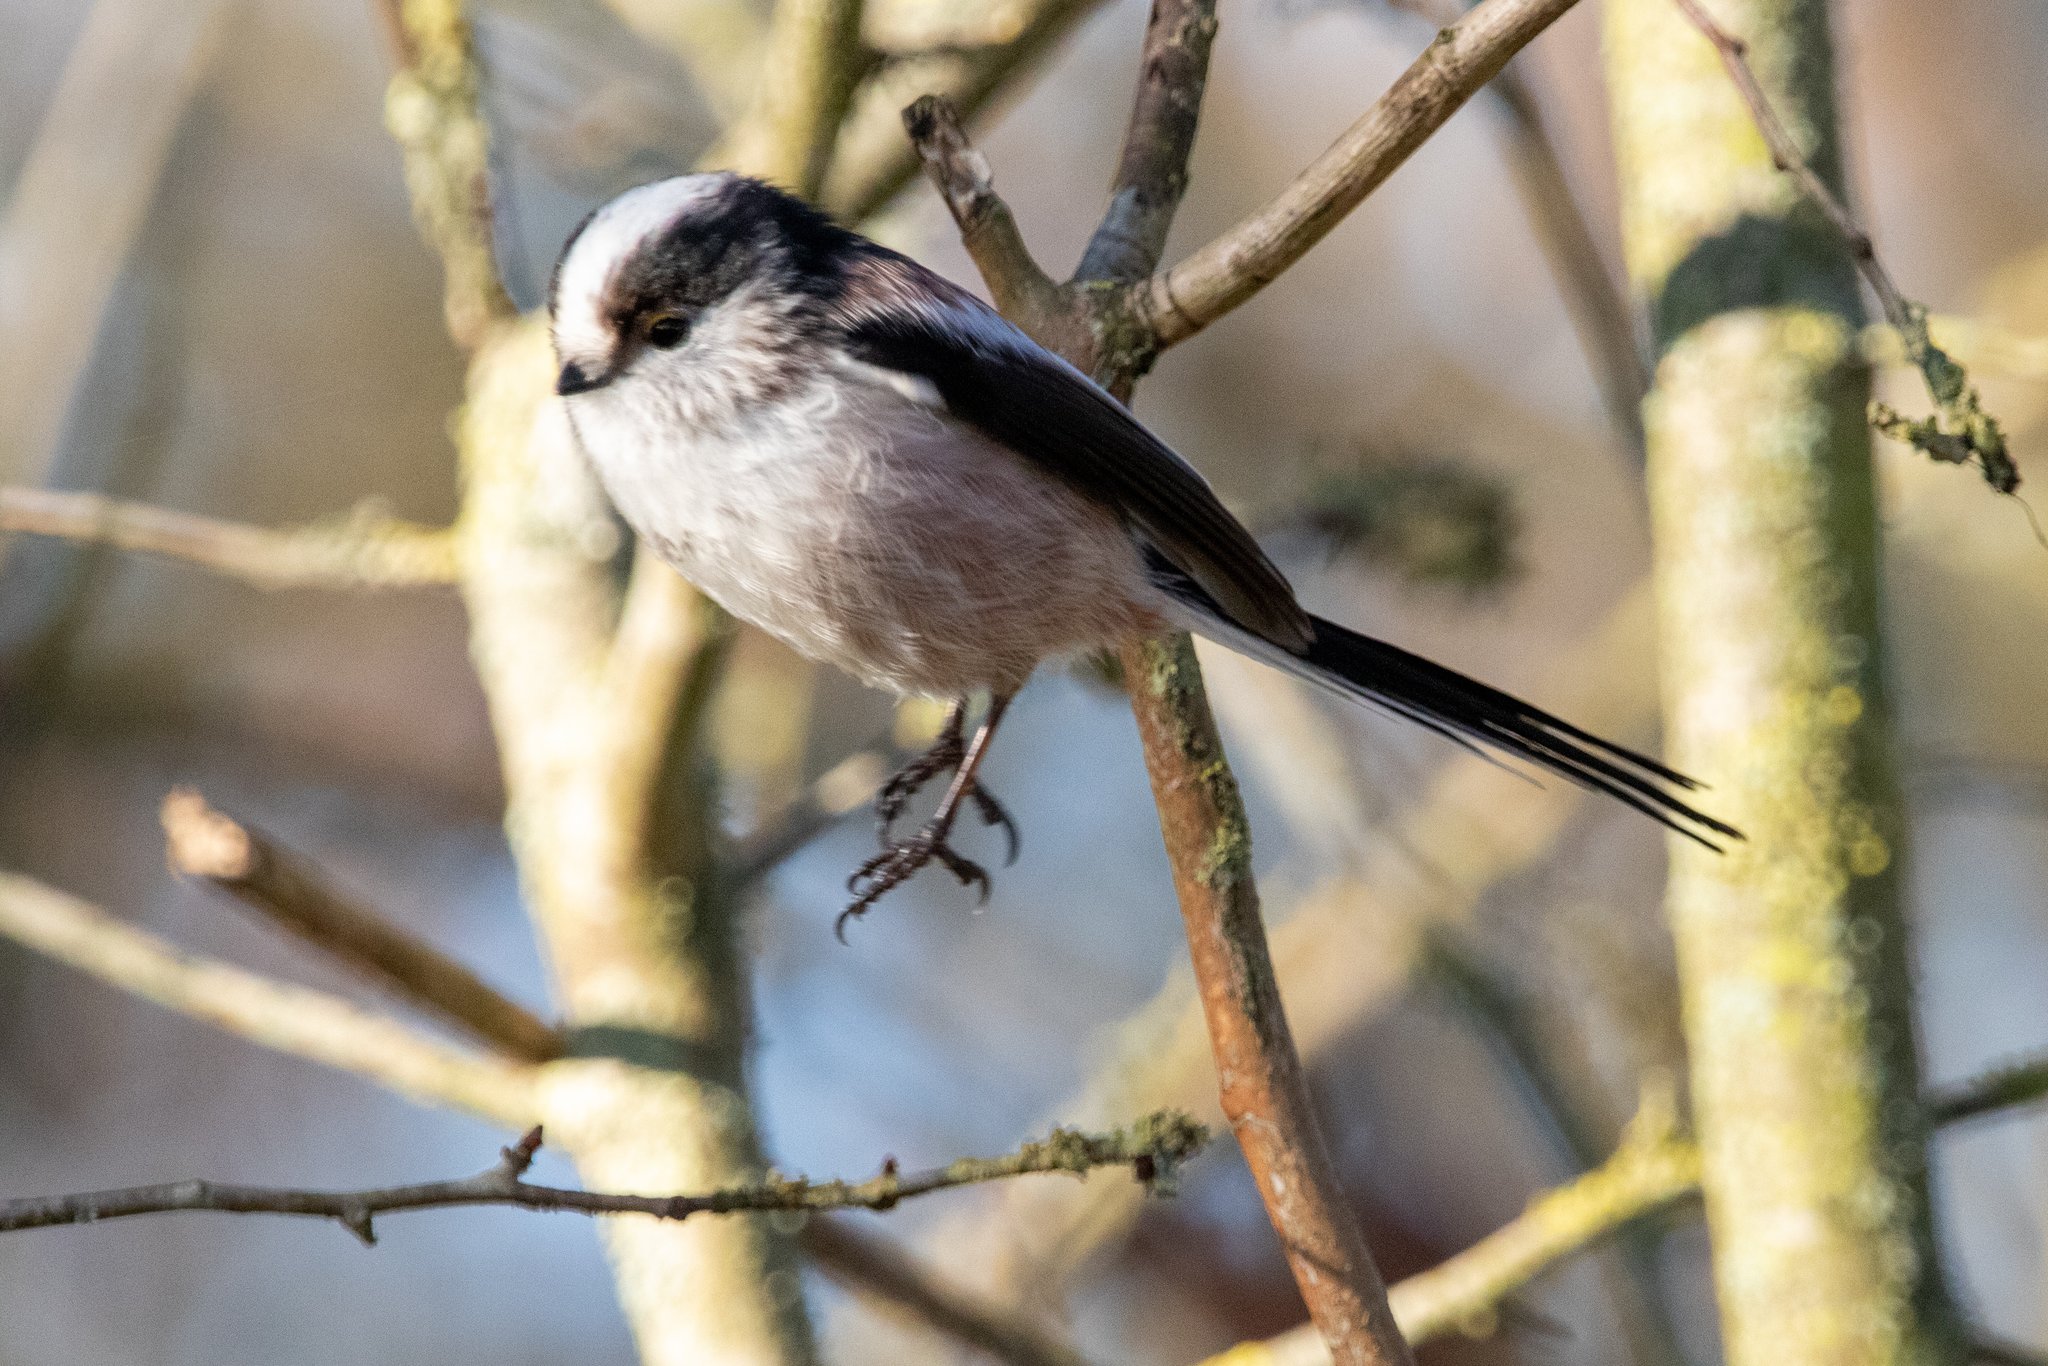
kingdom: Animalia
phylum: Chordata
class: Aves
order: Passeriformes
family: Aegithalidae
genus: Aegithalos
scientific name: Aegithalos caudatus
